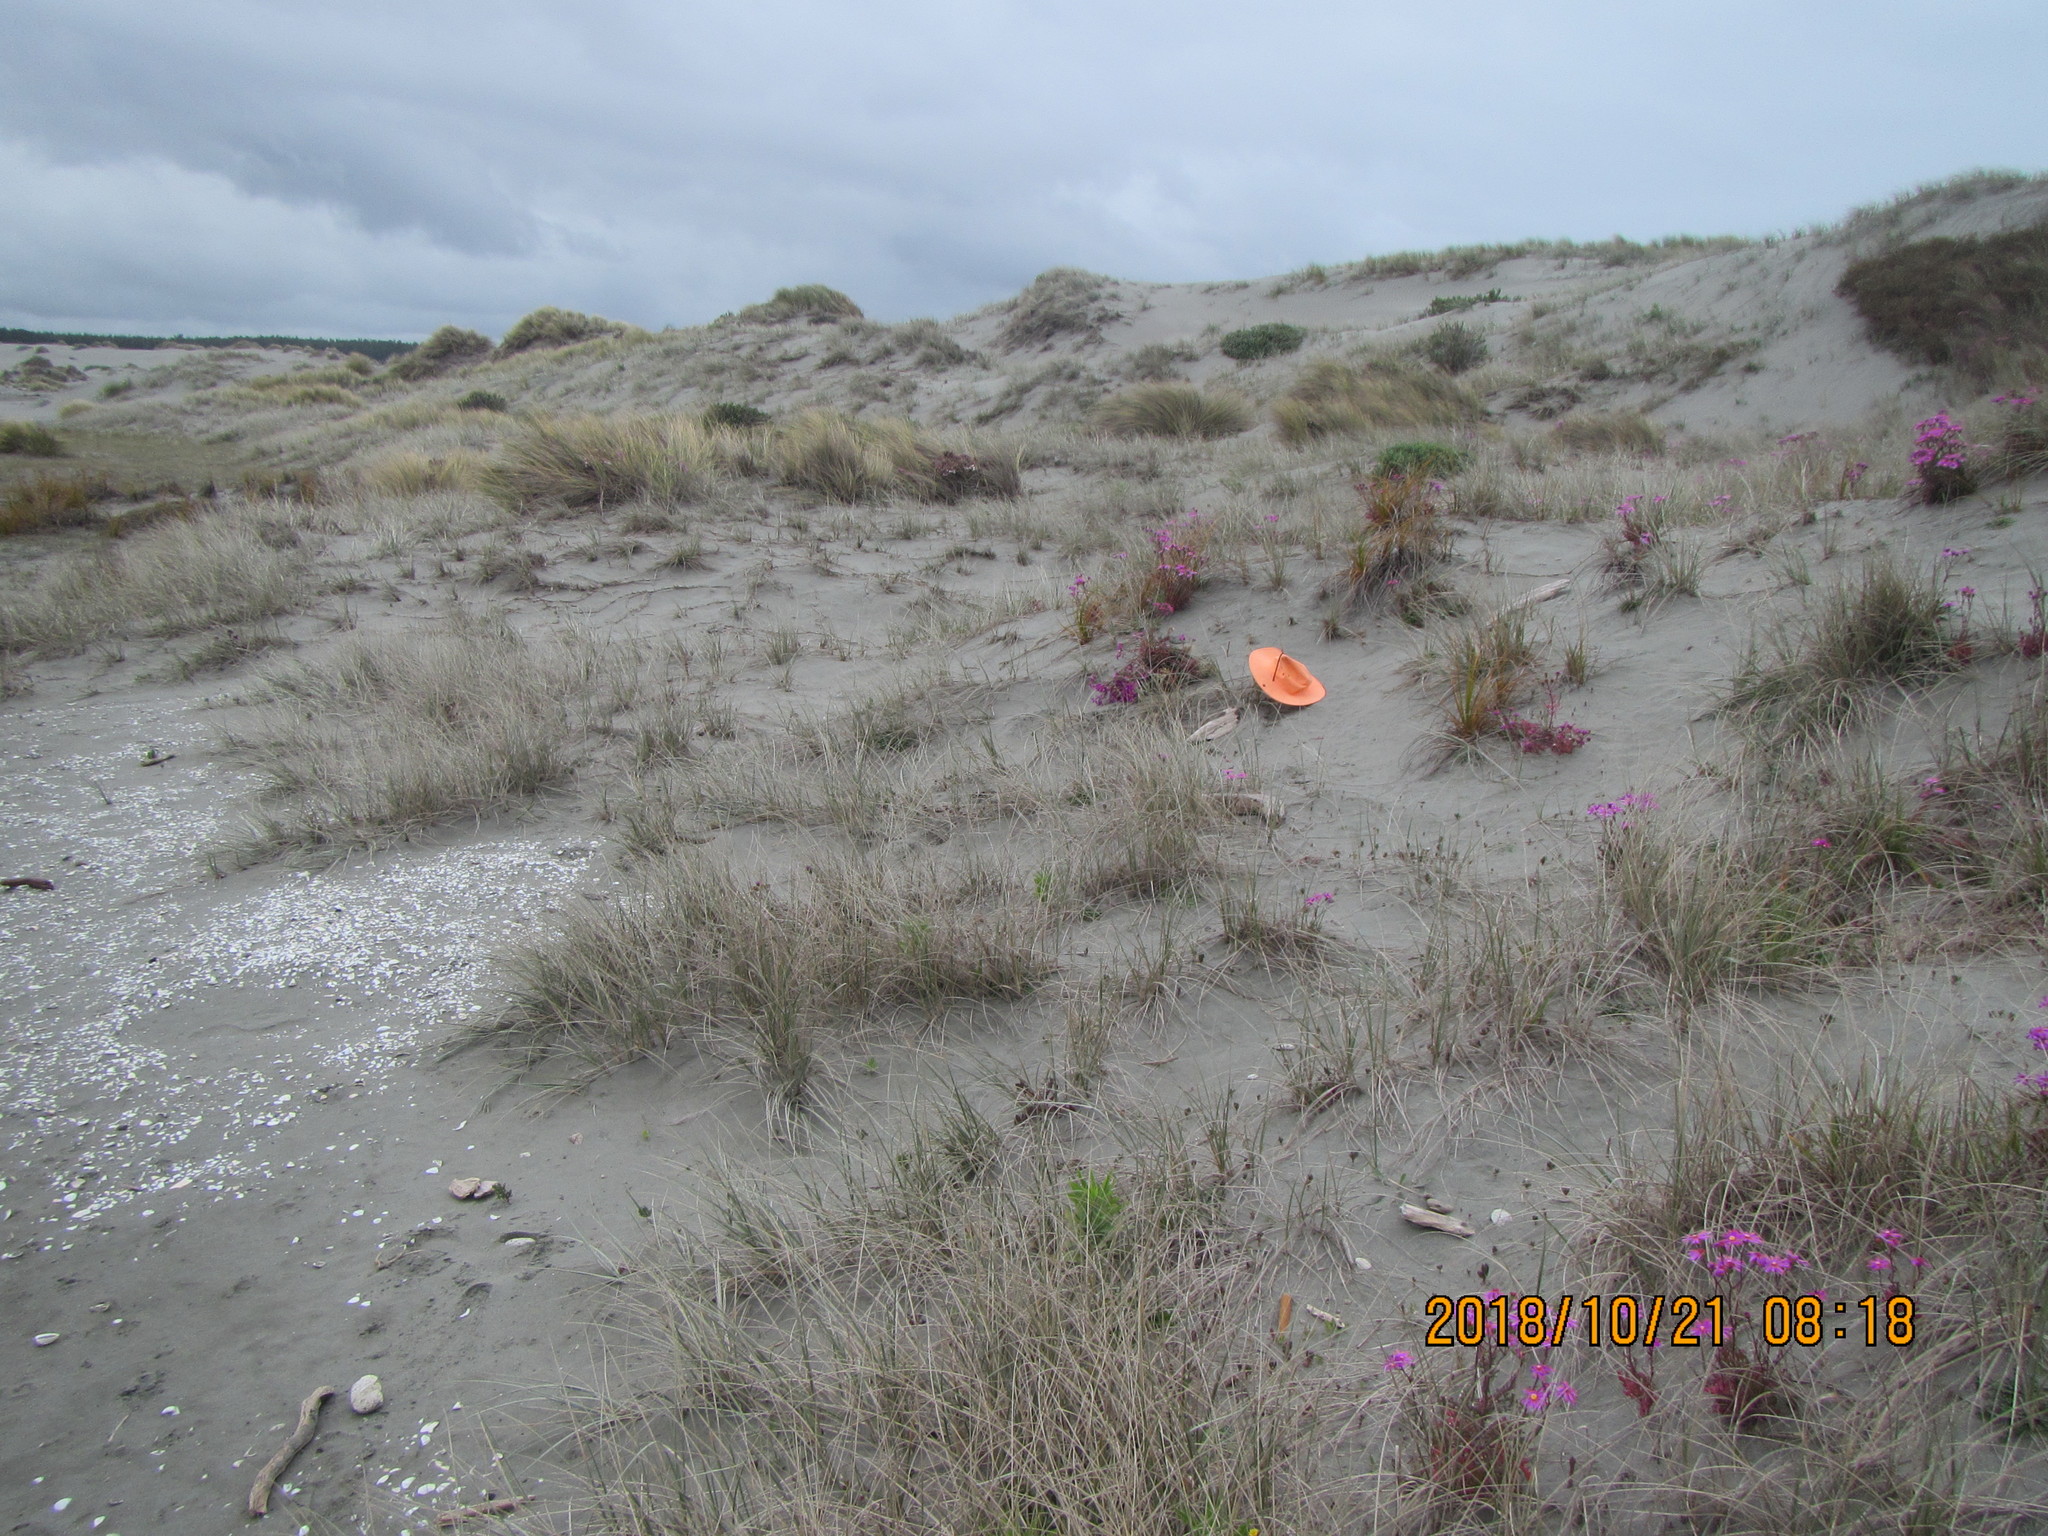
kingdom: Animalia
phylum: Arthropoda
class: Arachnida
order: Araneae
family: Theridiidae
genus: Steatoda
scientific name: Steatoda lepida
